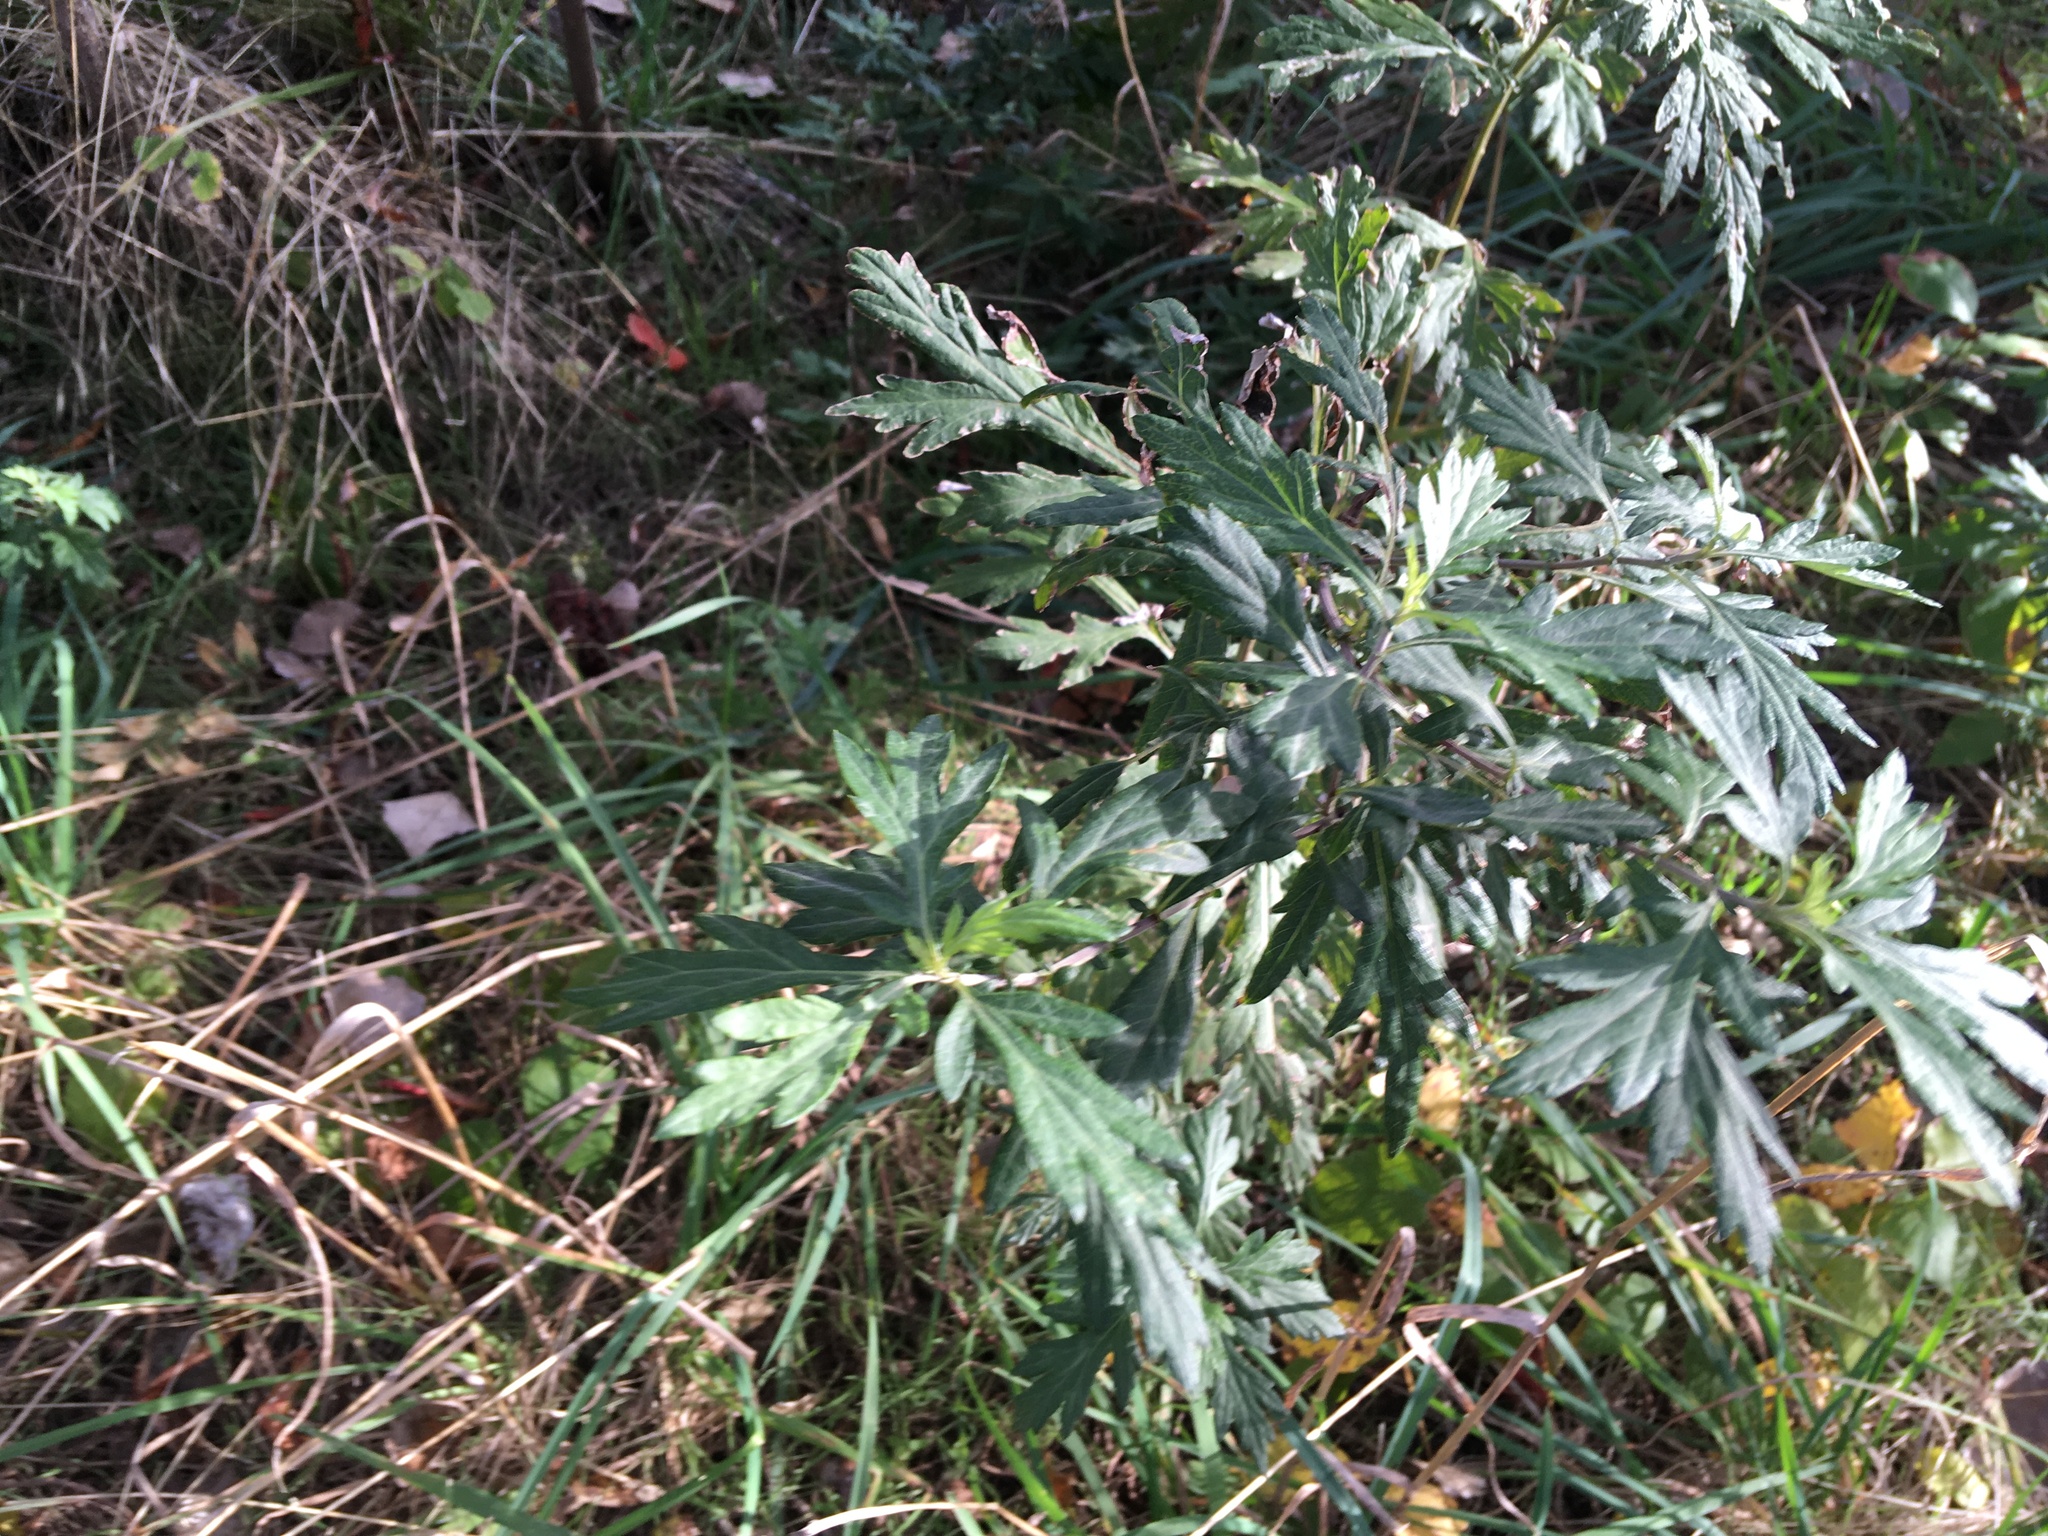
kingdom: Plantae
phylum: Tracheophyta
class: Magnoliopsida
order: Asterales
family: Asteraceae
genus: Artemisia
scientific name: Artemisia vulgaris
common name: Mugwort
